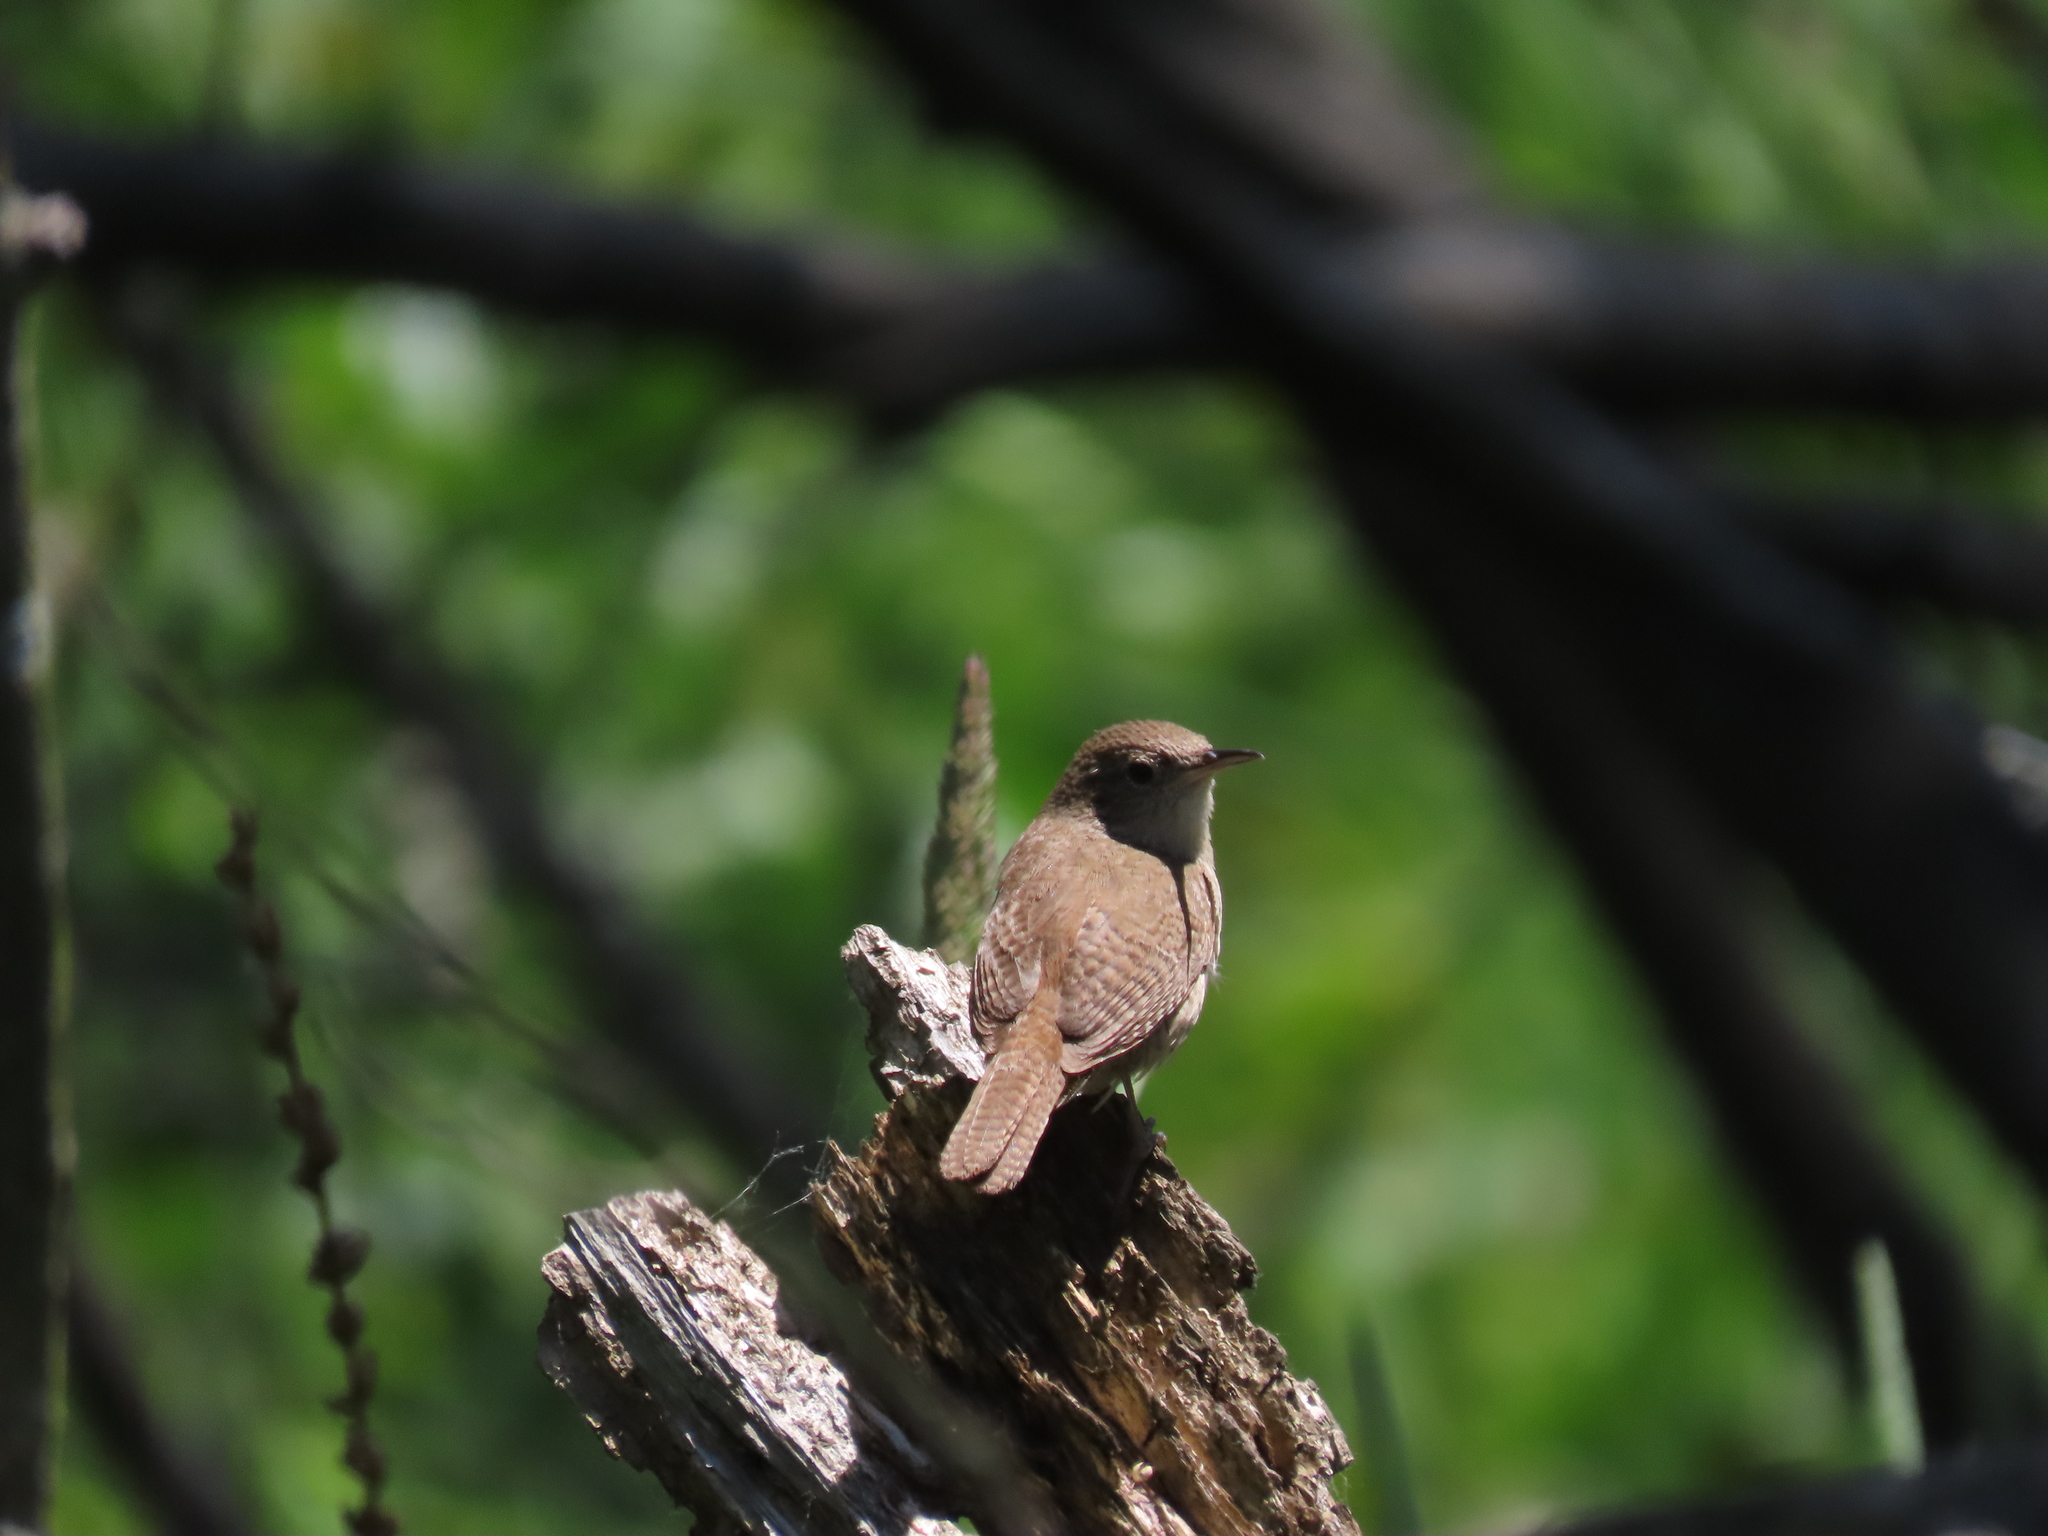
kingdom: Animalia
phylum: Chordata
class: Aves
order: Passeriformes
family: Troglodytidae
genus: Troglodytes
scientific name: Troglodytes aedon
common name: House wren
